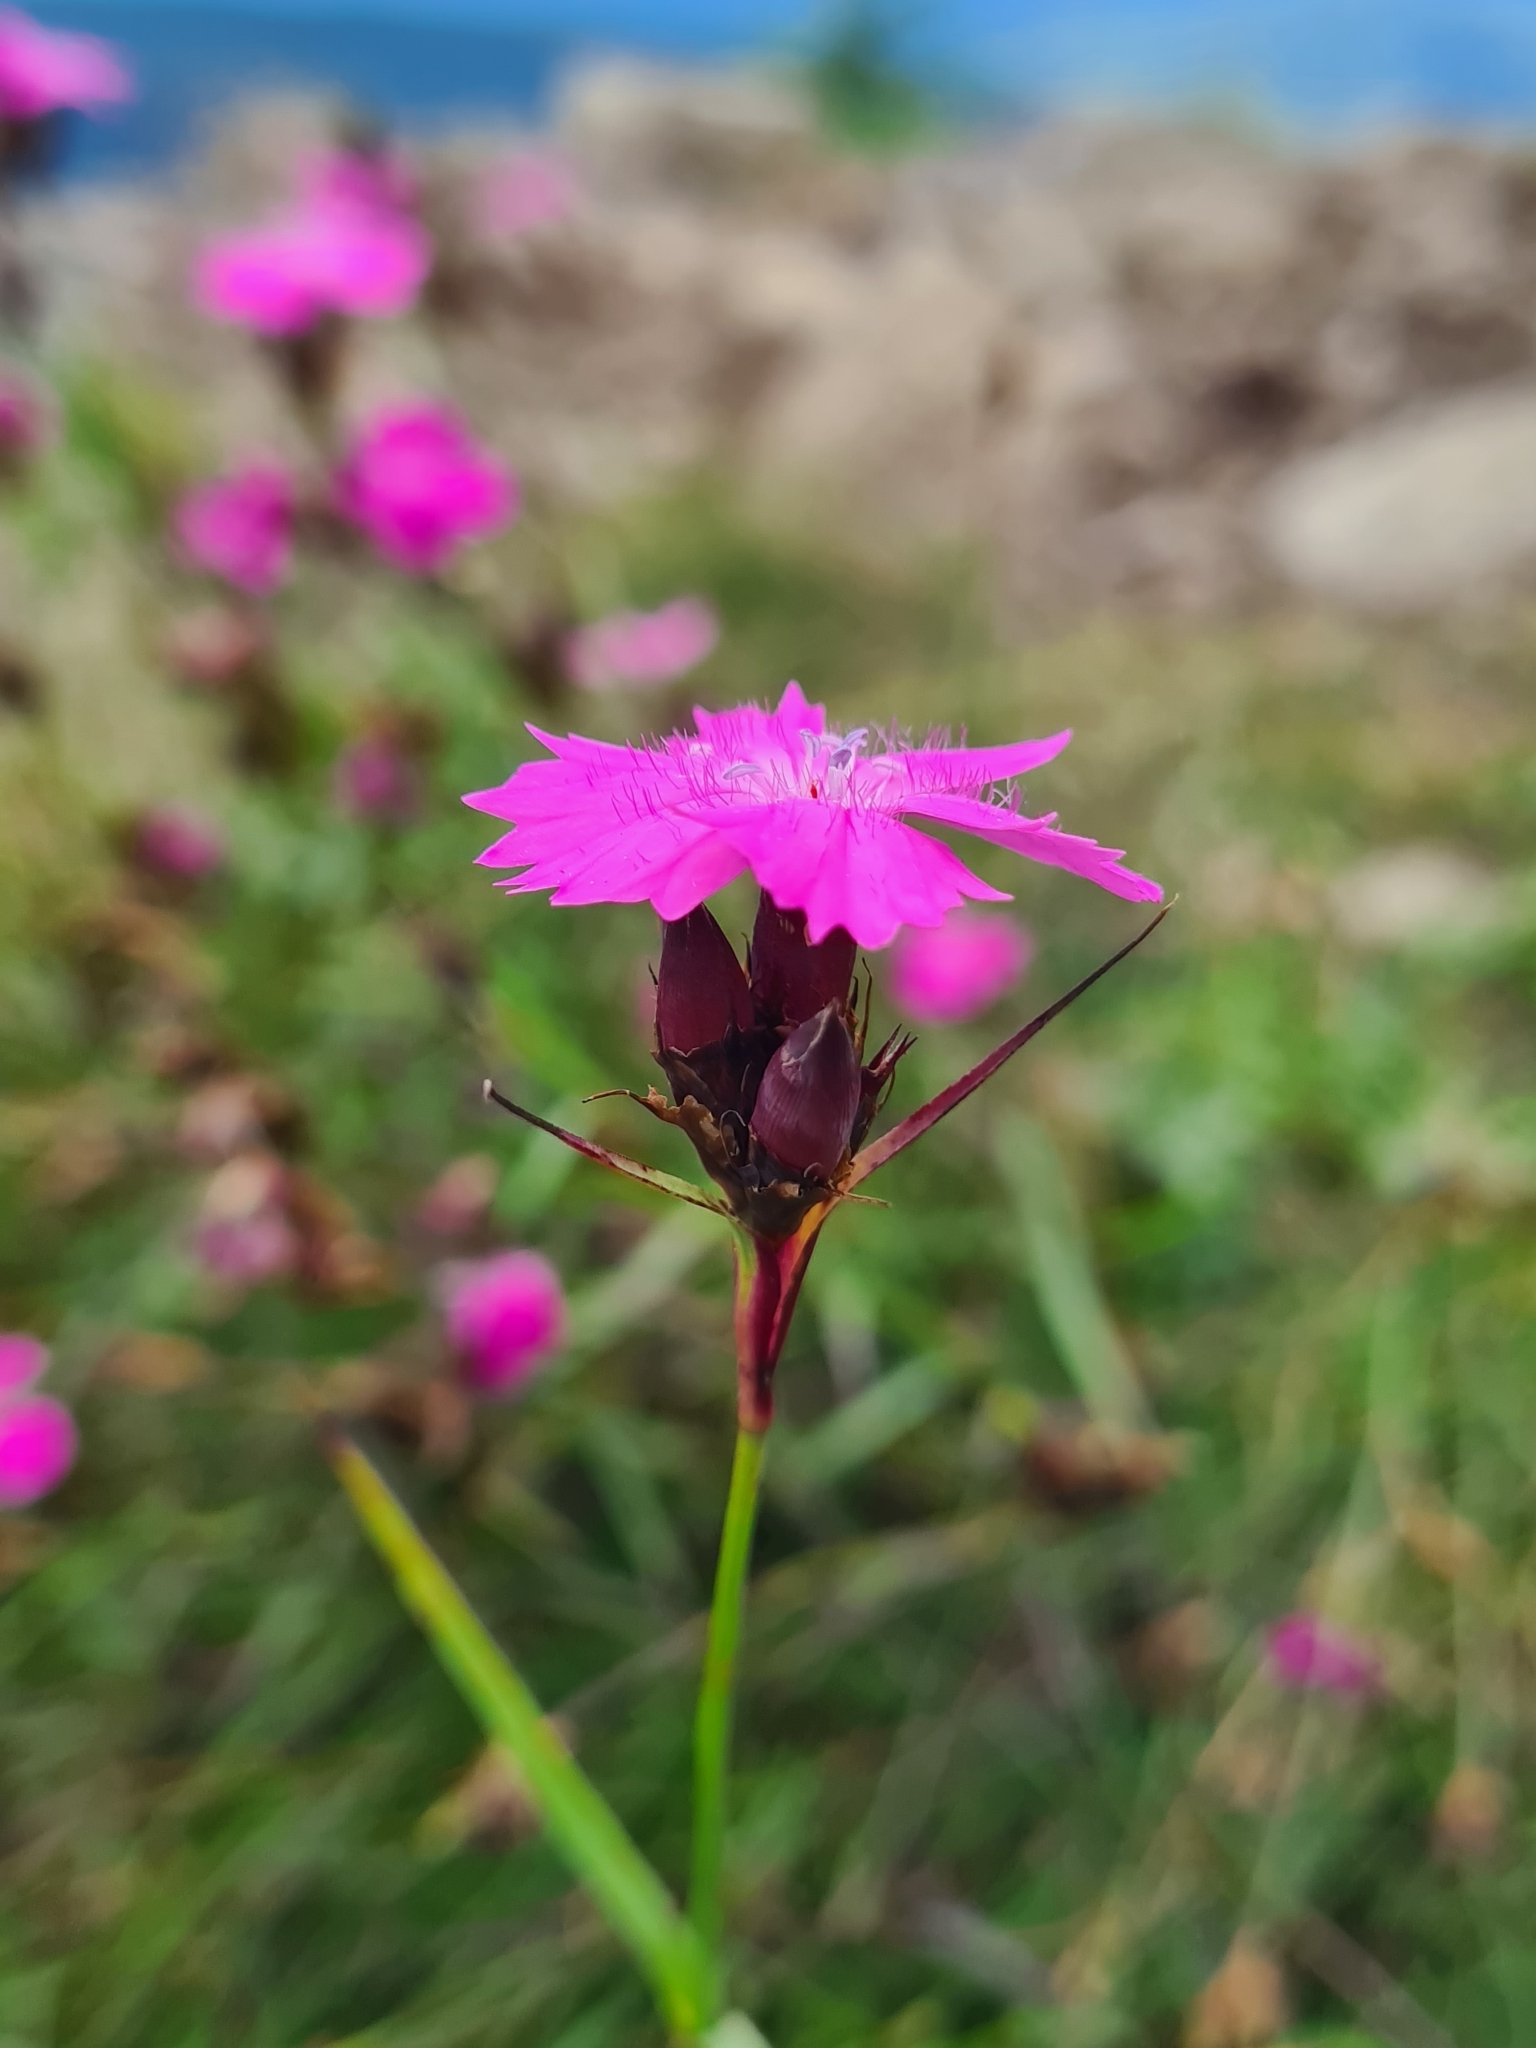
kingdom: Plantae
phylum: Tracheophyta
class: Magnoliopsida
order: Caryophyllales
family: Caryophyllaceae
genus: Dianthus
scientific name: Dianthus carthusianorum
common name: Carthusian pink
